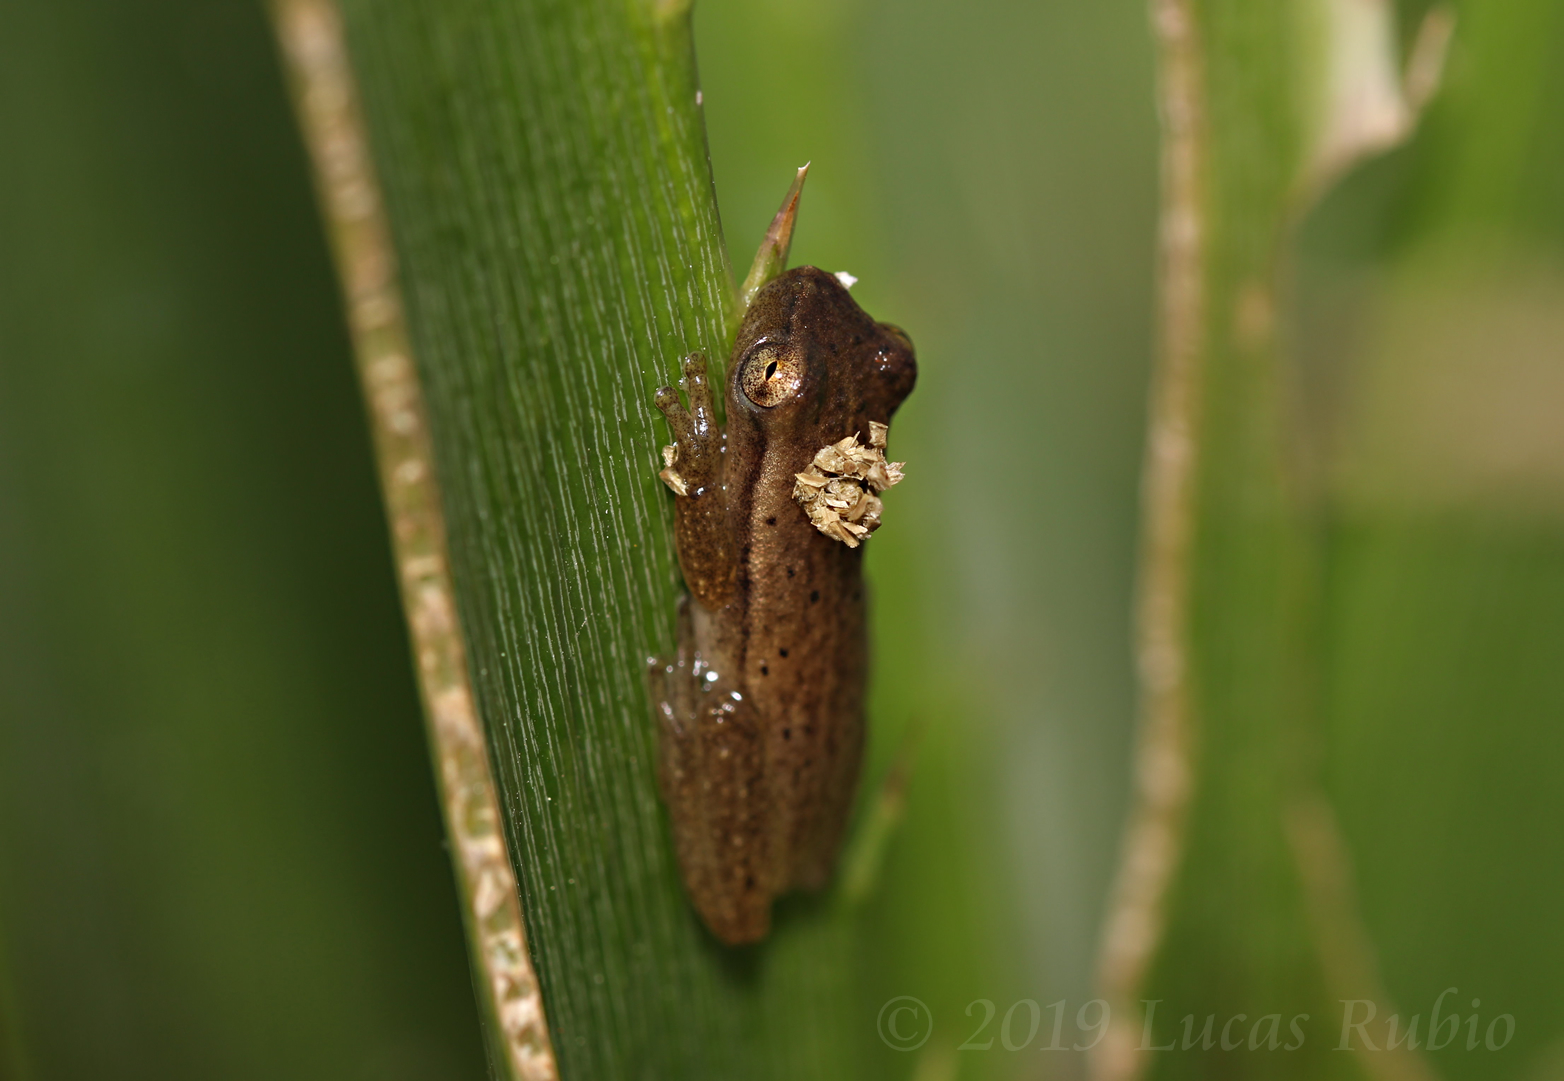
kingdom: Animalia
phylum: Chordata
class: Amphibia
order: Anura
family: Hylidae
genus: Dendropsophus
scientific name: Dendropsophus
